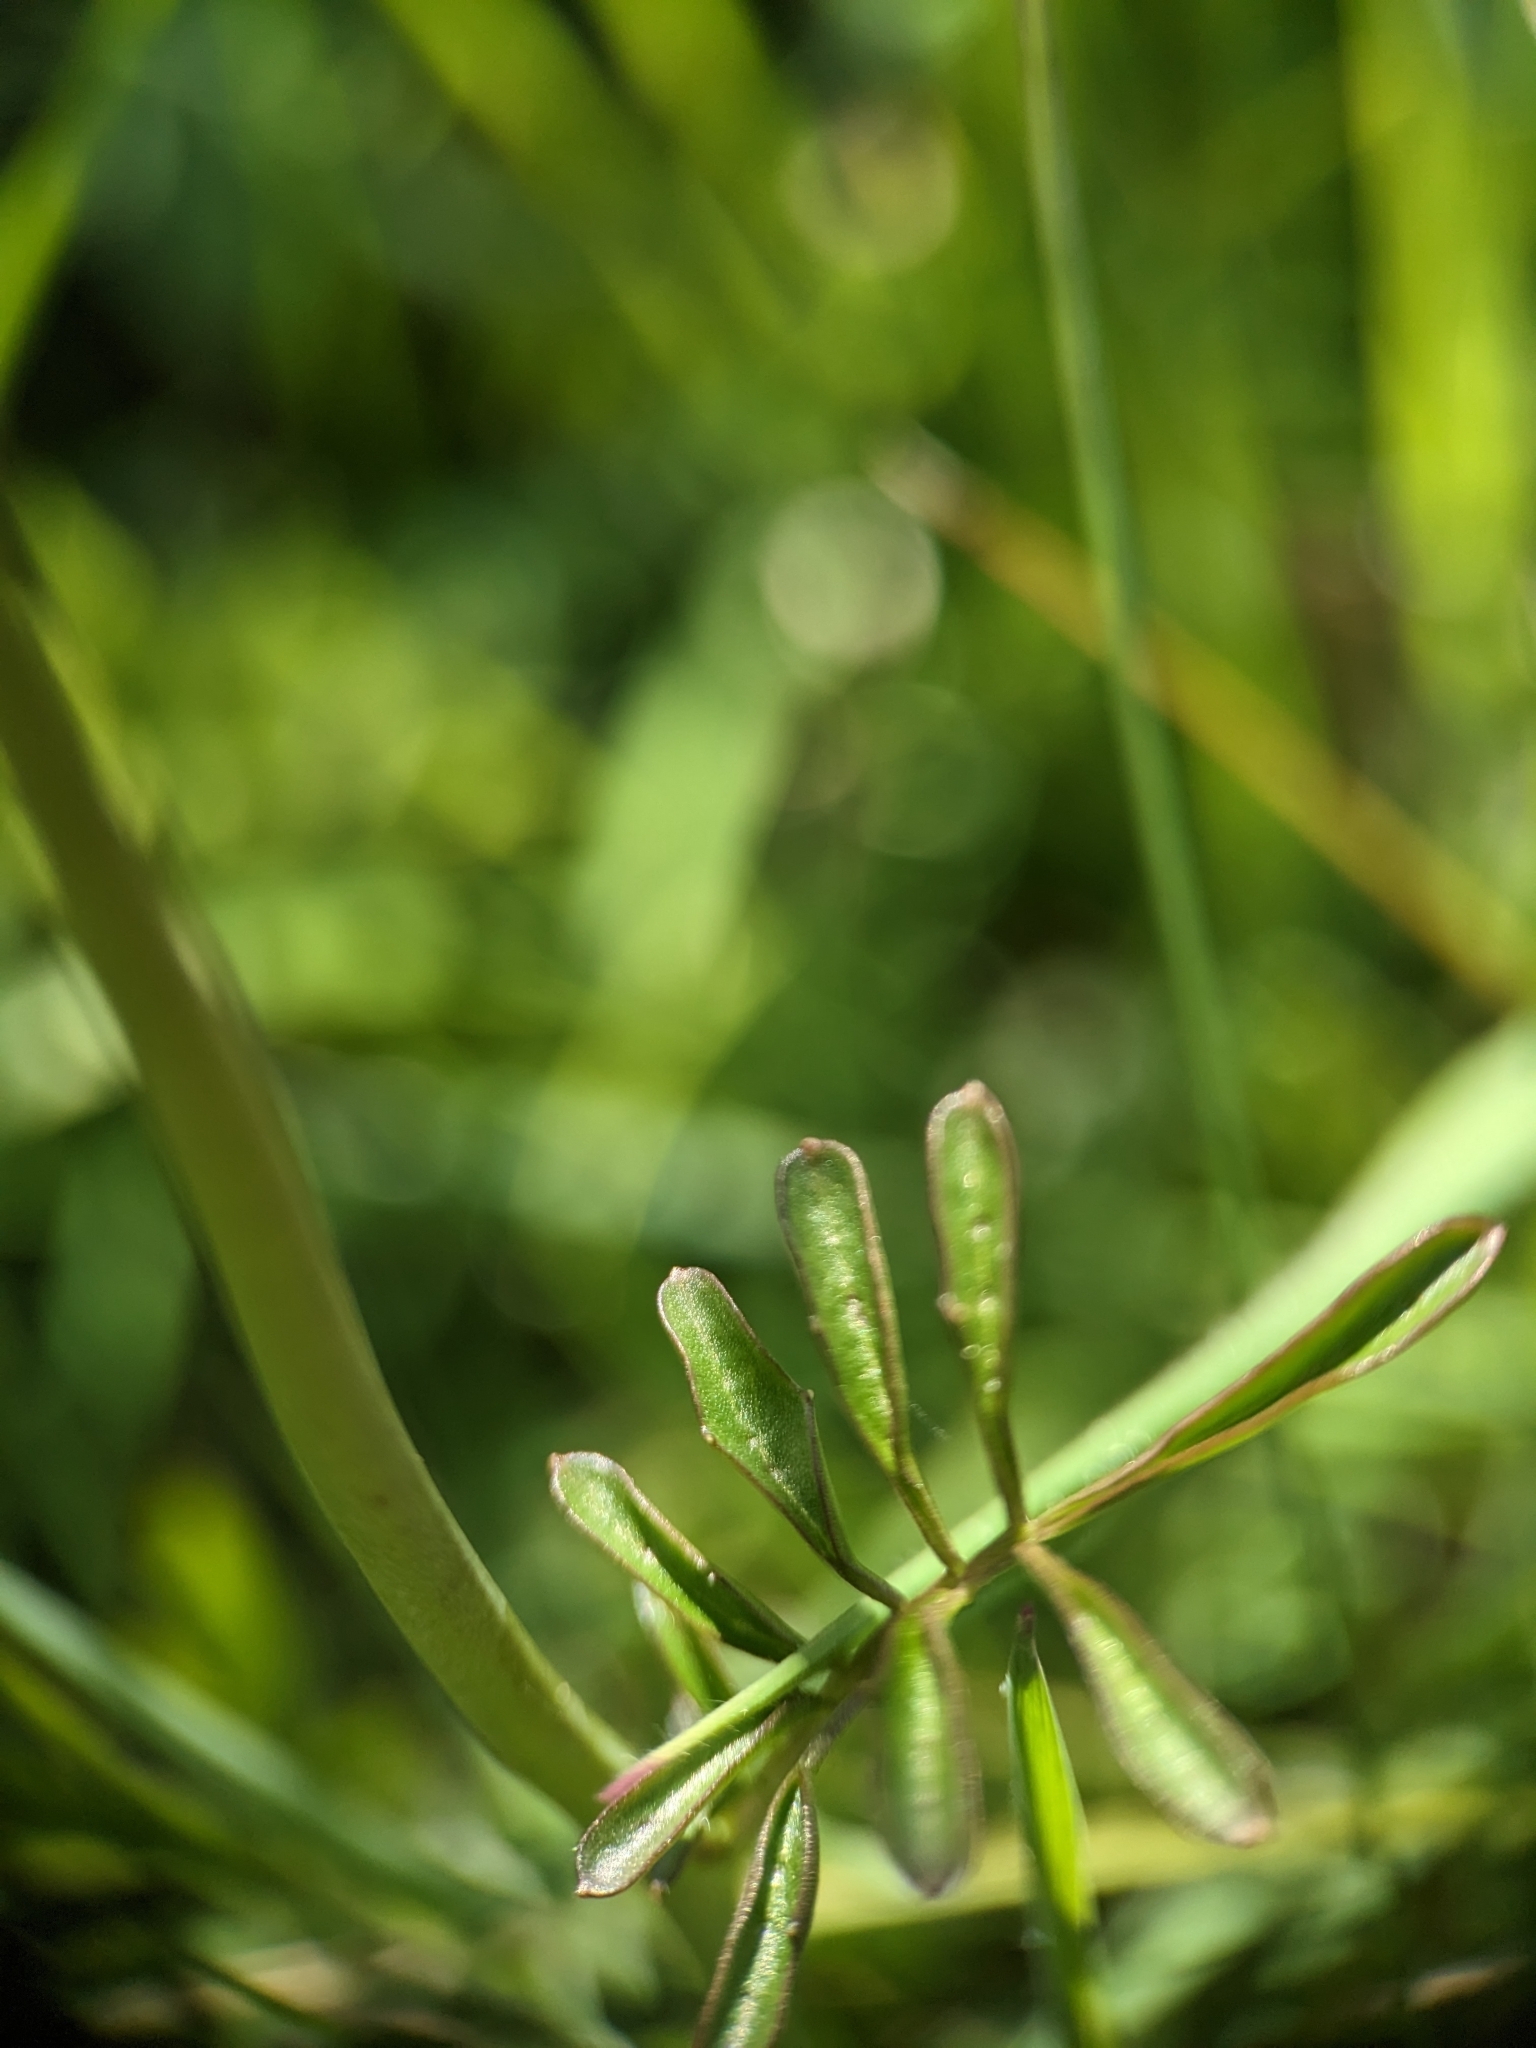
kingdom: Plantae
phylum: Tracheophyta
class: Magnoliopsida
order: Brassicales
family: Brassicaceae
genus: Cardamine
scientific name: Cardamine pratensis
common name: Cuckoo flower
